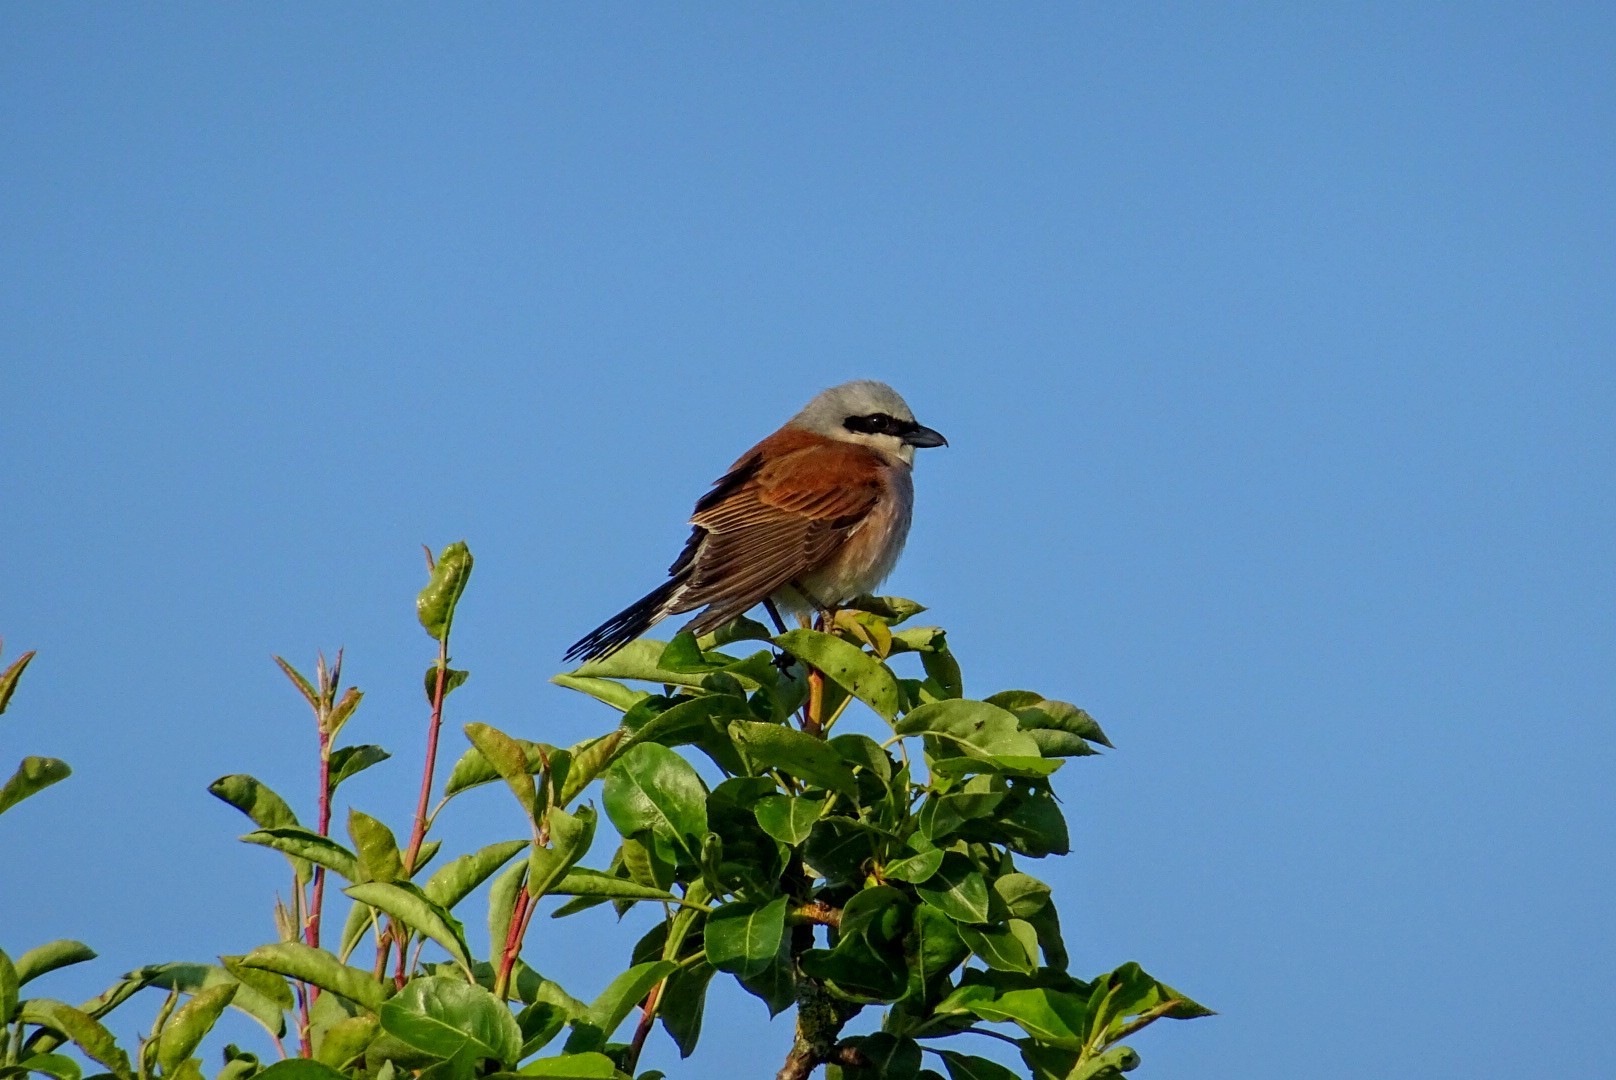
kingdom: Animalia
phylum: Chordata
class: Aves
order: Passeriformes
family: Laniidae
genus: Lanius
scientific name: Lanius collurio
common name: Red-backed shrike
